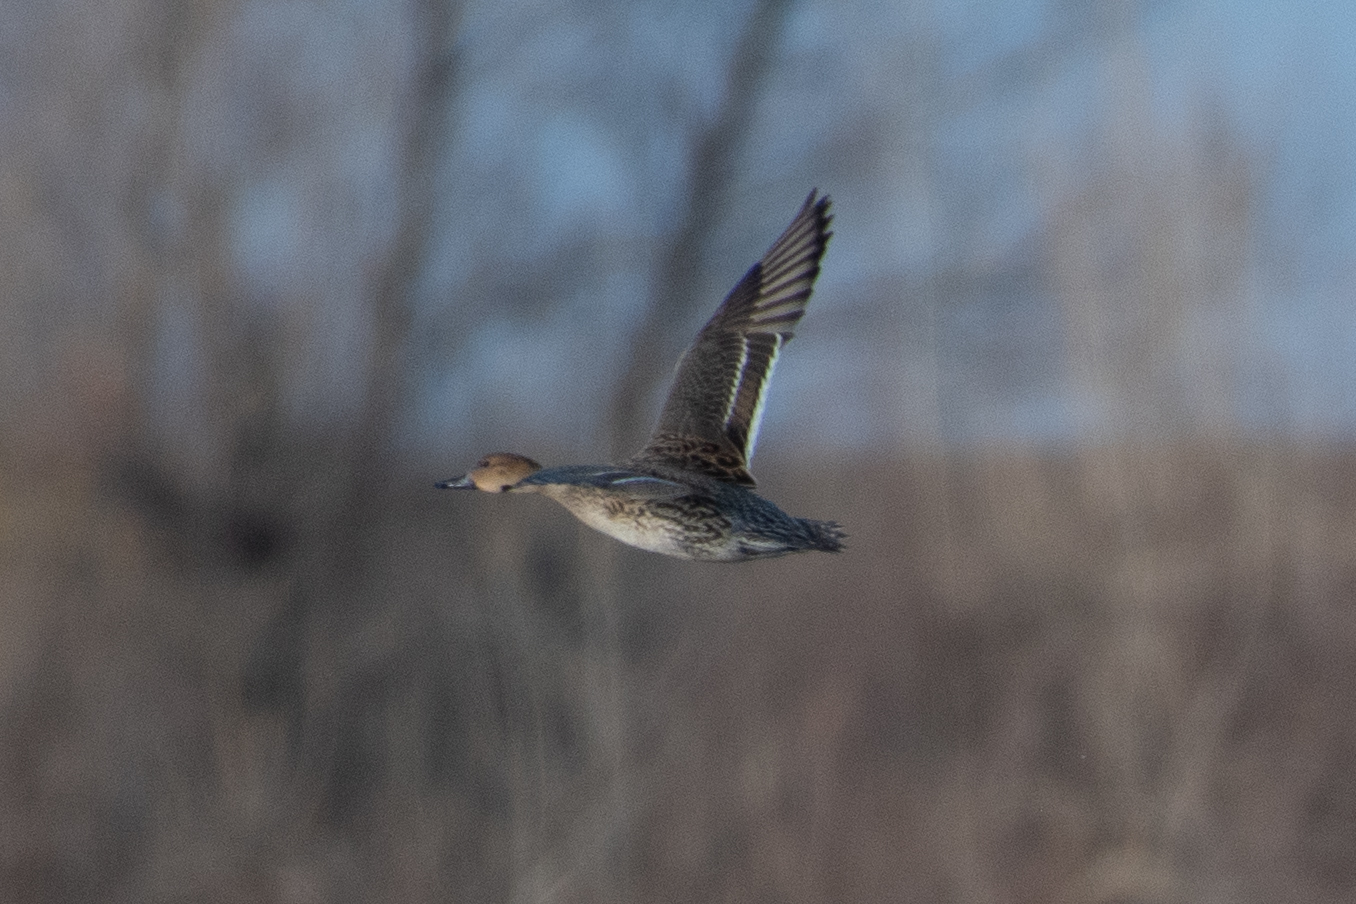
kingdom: Animalia
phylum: Chordata
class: Aves
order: Anseriformes
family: Anatidae
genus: Anas
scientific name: Anas acuta
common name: Northern pintail
